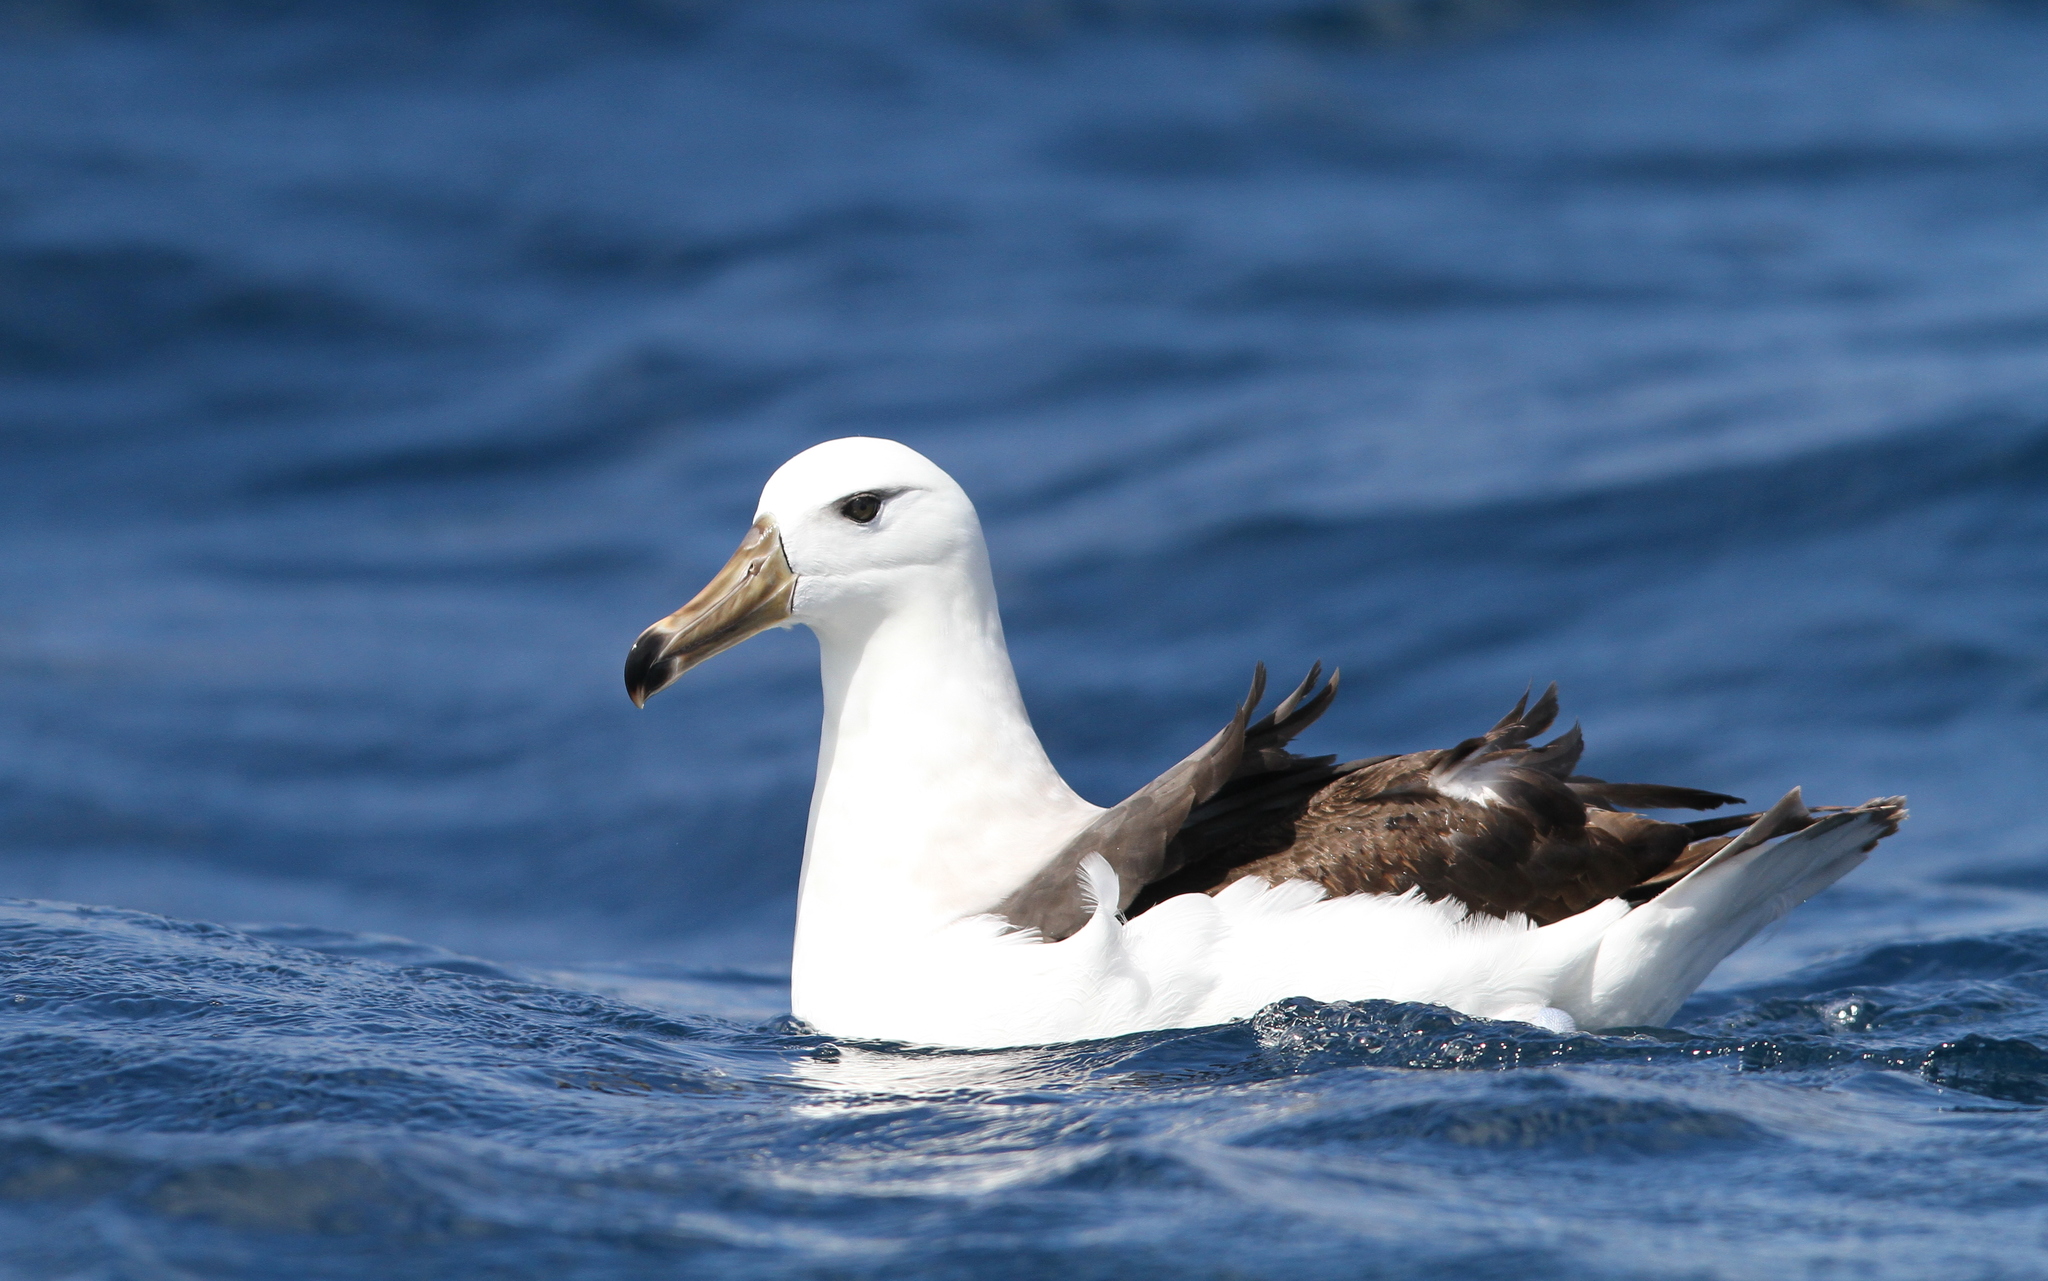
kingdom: Animalia
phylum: Chordata
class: Aves
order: Procellariiformes
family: Diomedeidae
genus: Thalassarche
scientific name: Thalassarche melanophris
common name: Black-browed albatross
